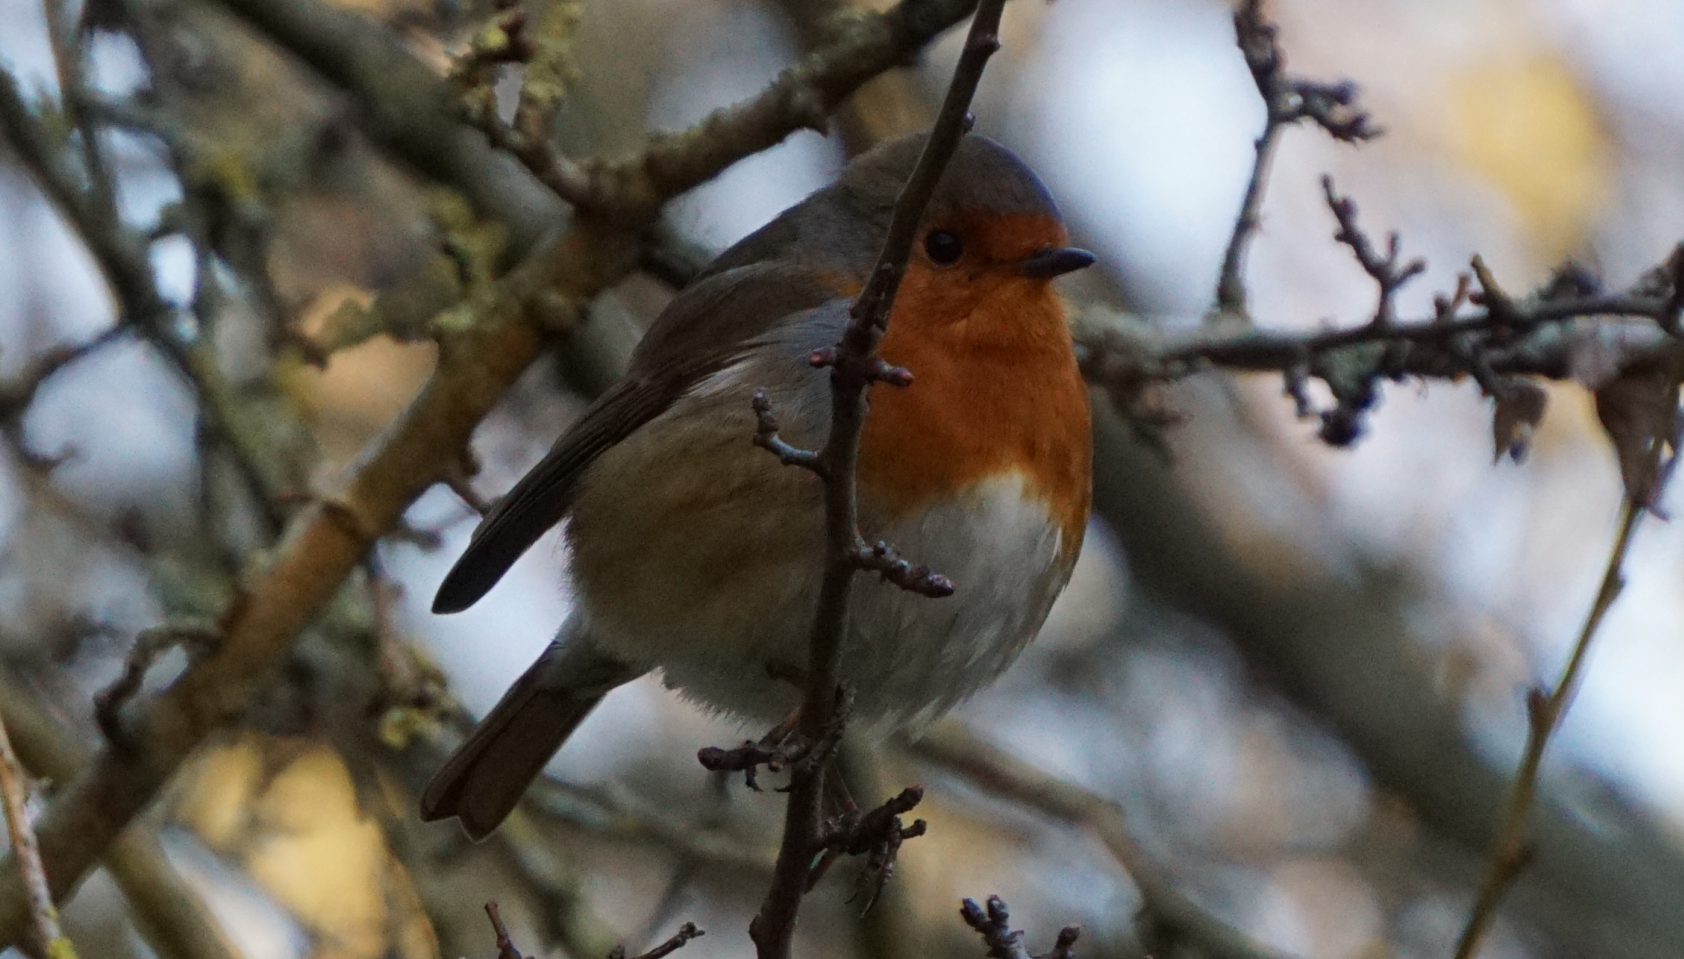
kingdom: Animalia
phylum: Chordata
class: Aves
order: Passeriformes
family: Muscicapidae
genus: Erithacus
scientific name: Erithacus rubecula
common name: European robin
